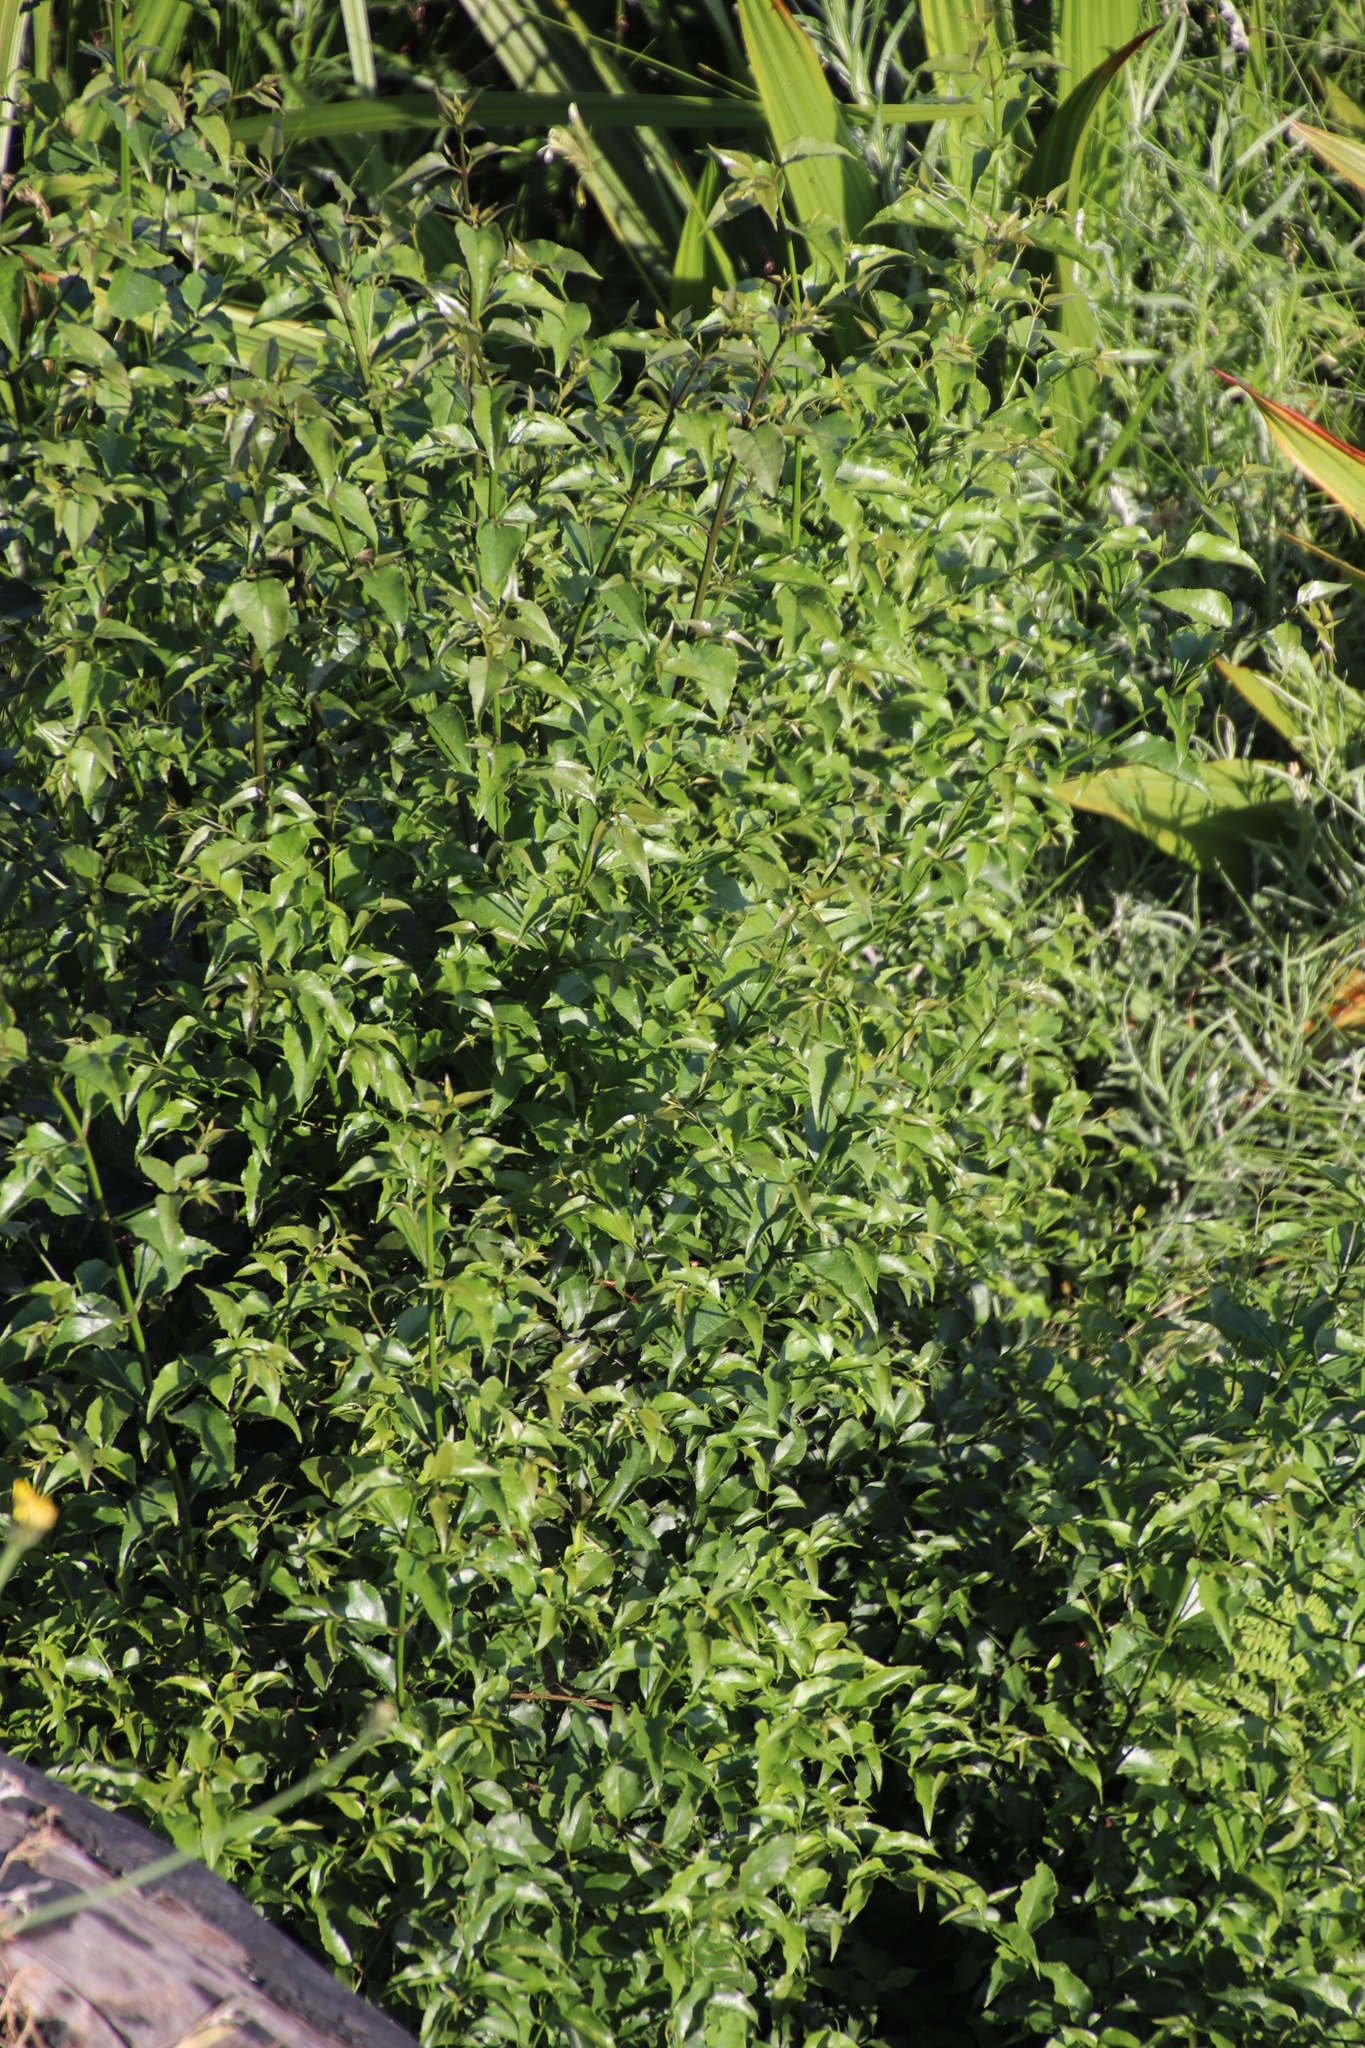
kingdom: Plantae
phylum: Tracheophyta
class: Magnoliopsida
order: Lamiales
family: Stilbaceae
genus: Halleria
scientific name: Halleria lucida
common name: Tree fuschia
